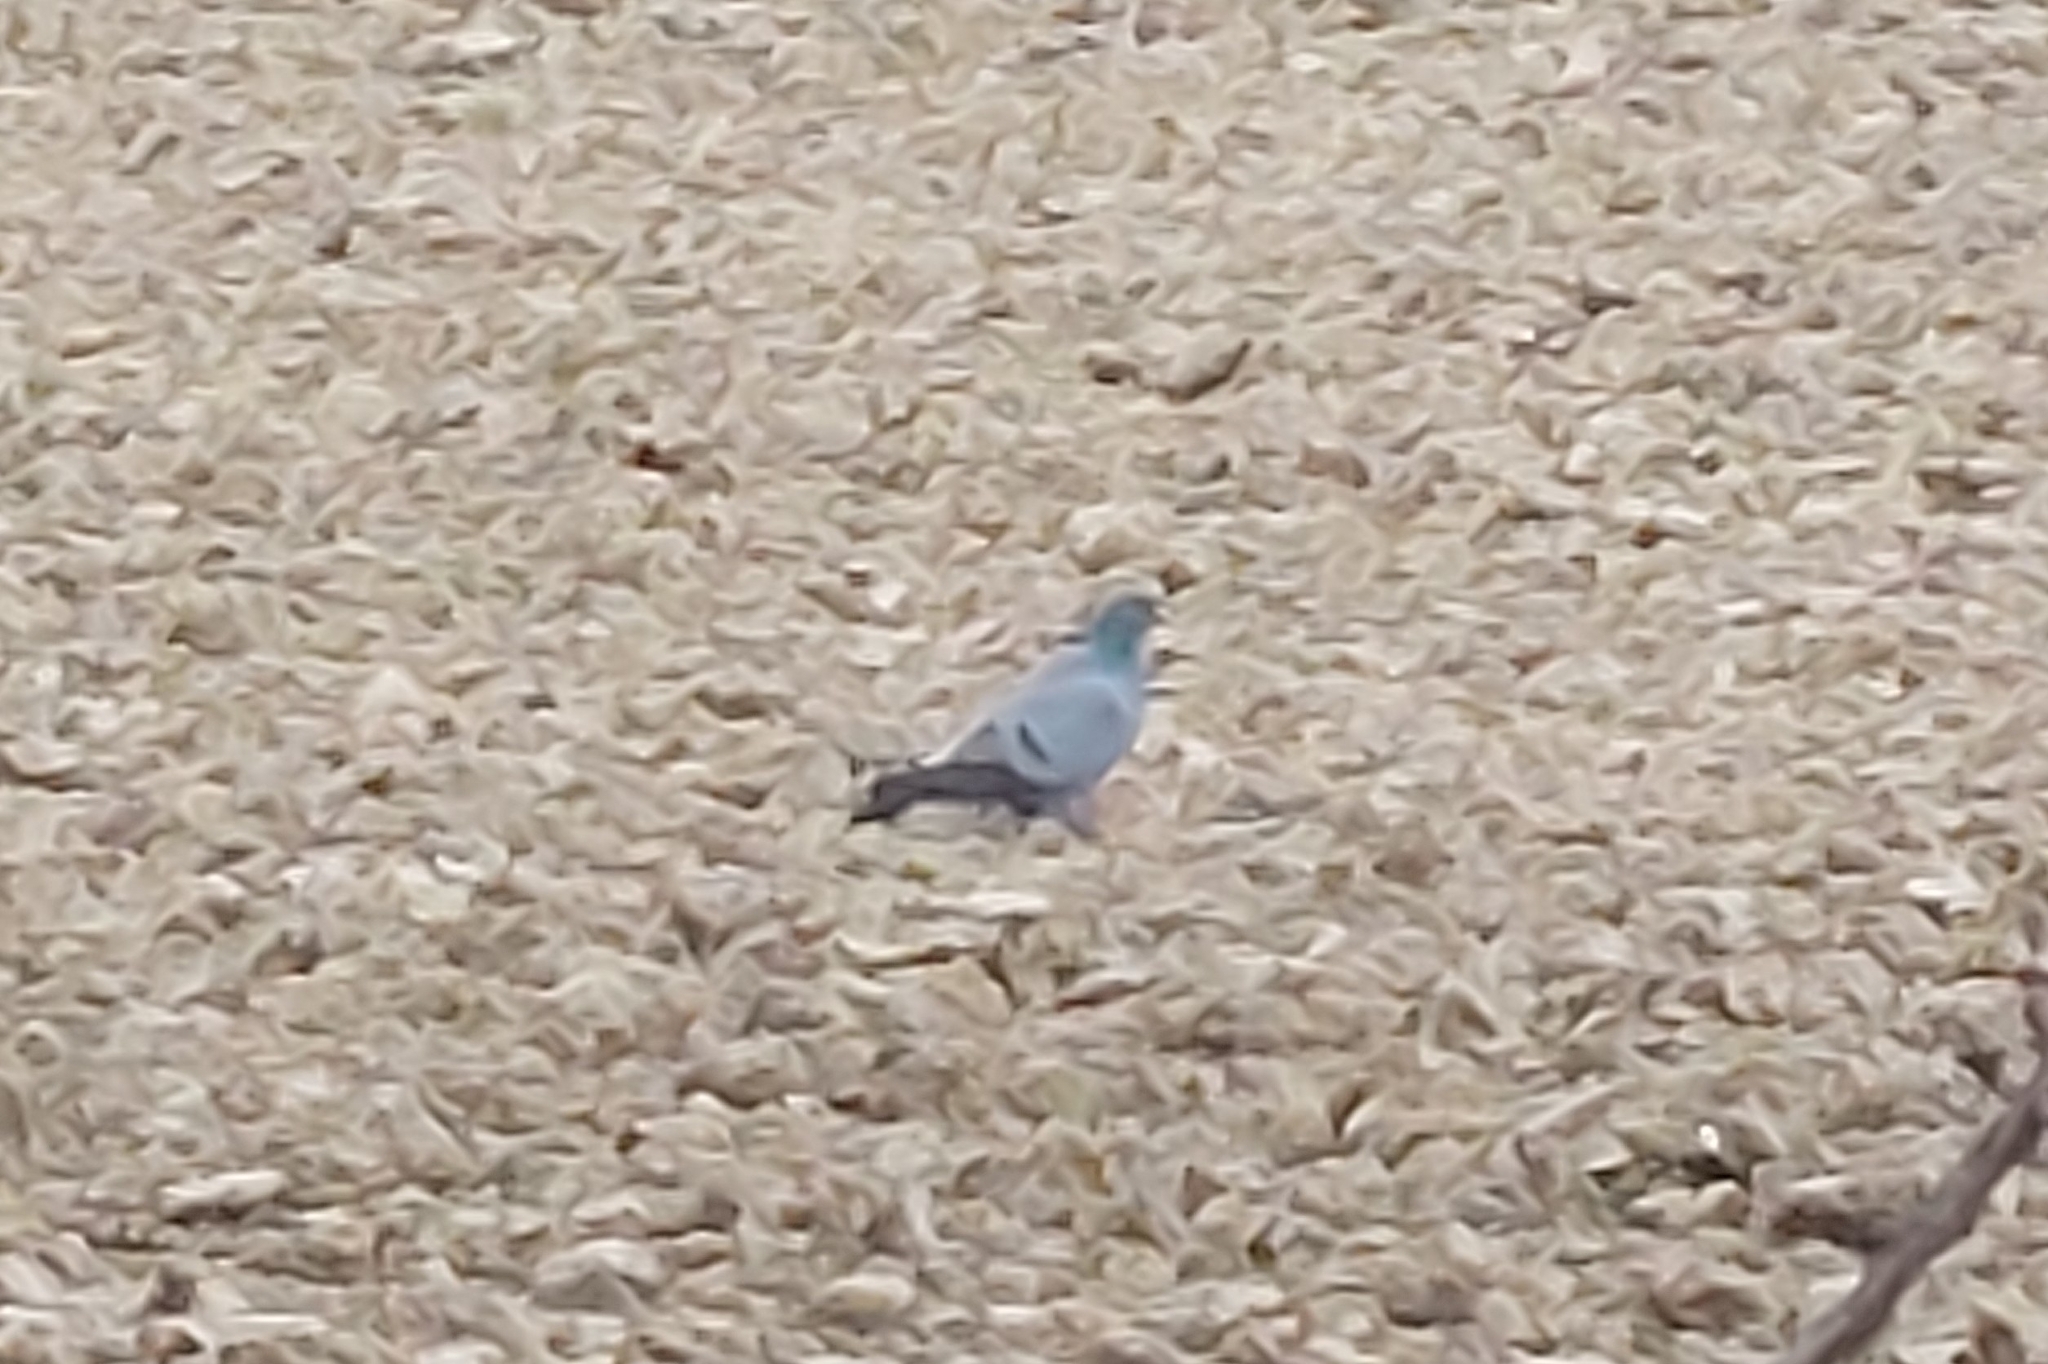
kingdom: Animalia
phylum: Chordata
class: Aves
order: Columbiformes
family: Columbidae
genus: Columba
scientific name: Columba oenas
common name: Stock dove
